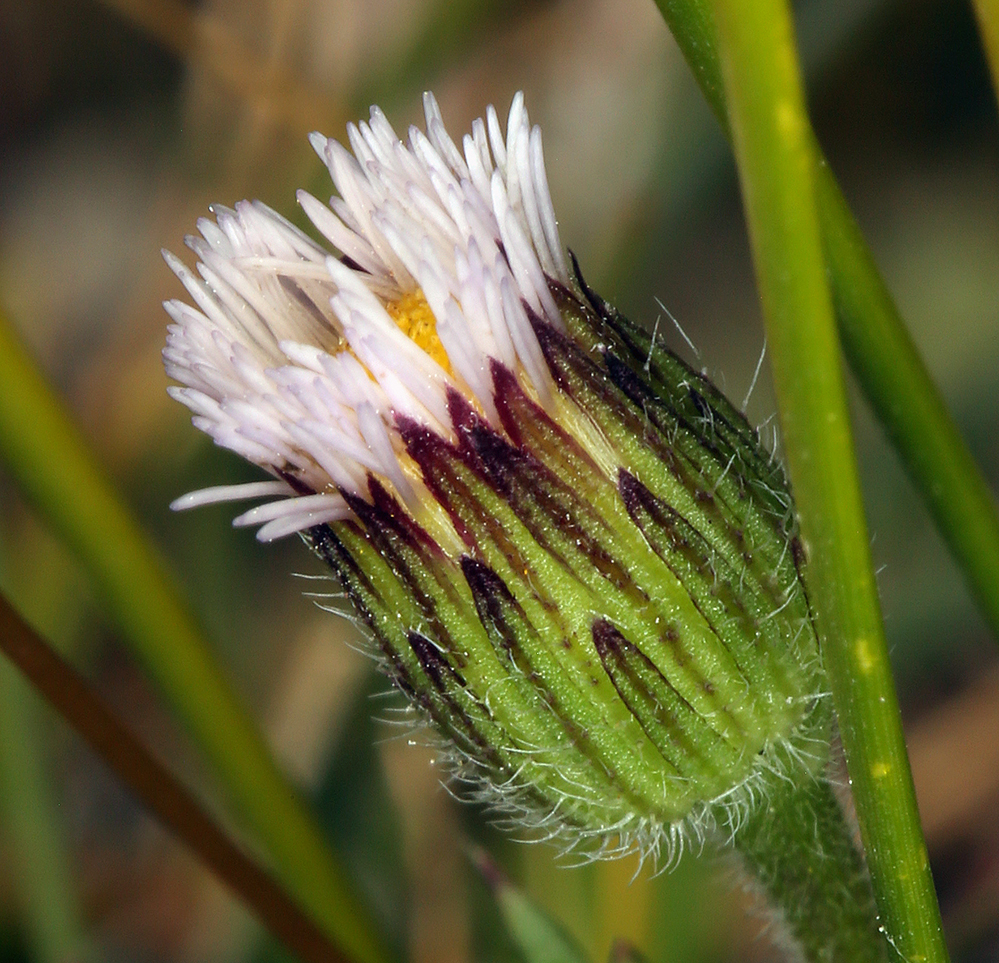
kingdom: Plantae
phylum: Tracheophyta
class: Magnoliopsida
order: Asterales
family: Asteraceae
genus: Erigeron
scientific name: Erigeron lonchophyllus
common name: Short-ray fleabane
